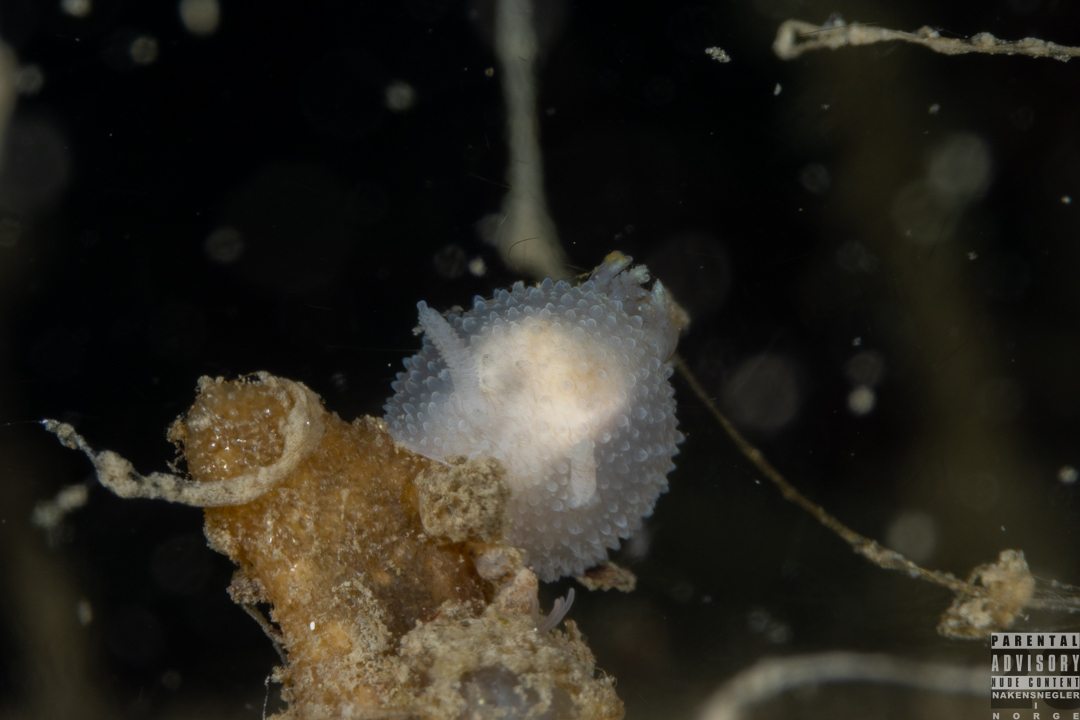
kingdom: Animalia
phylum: Mollusca
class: Gastropoda
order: Nudibranchia
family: Onchidorididae
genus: Acanthodoris
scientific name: Acanthodoris pilosa
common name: Hairy spiny doris
